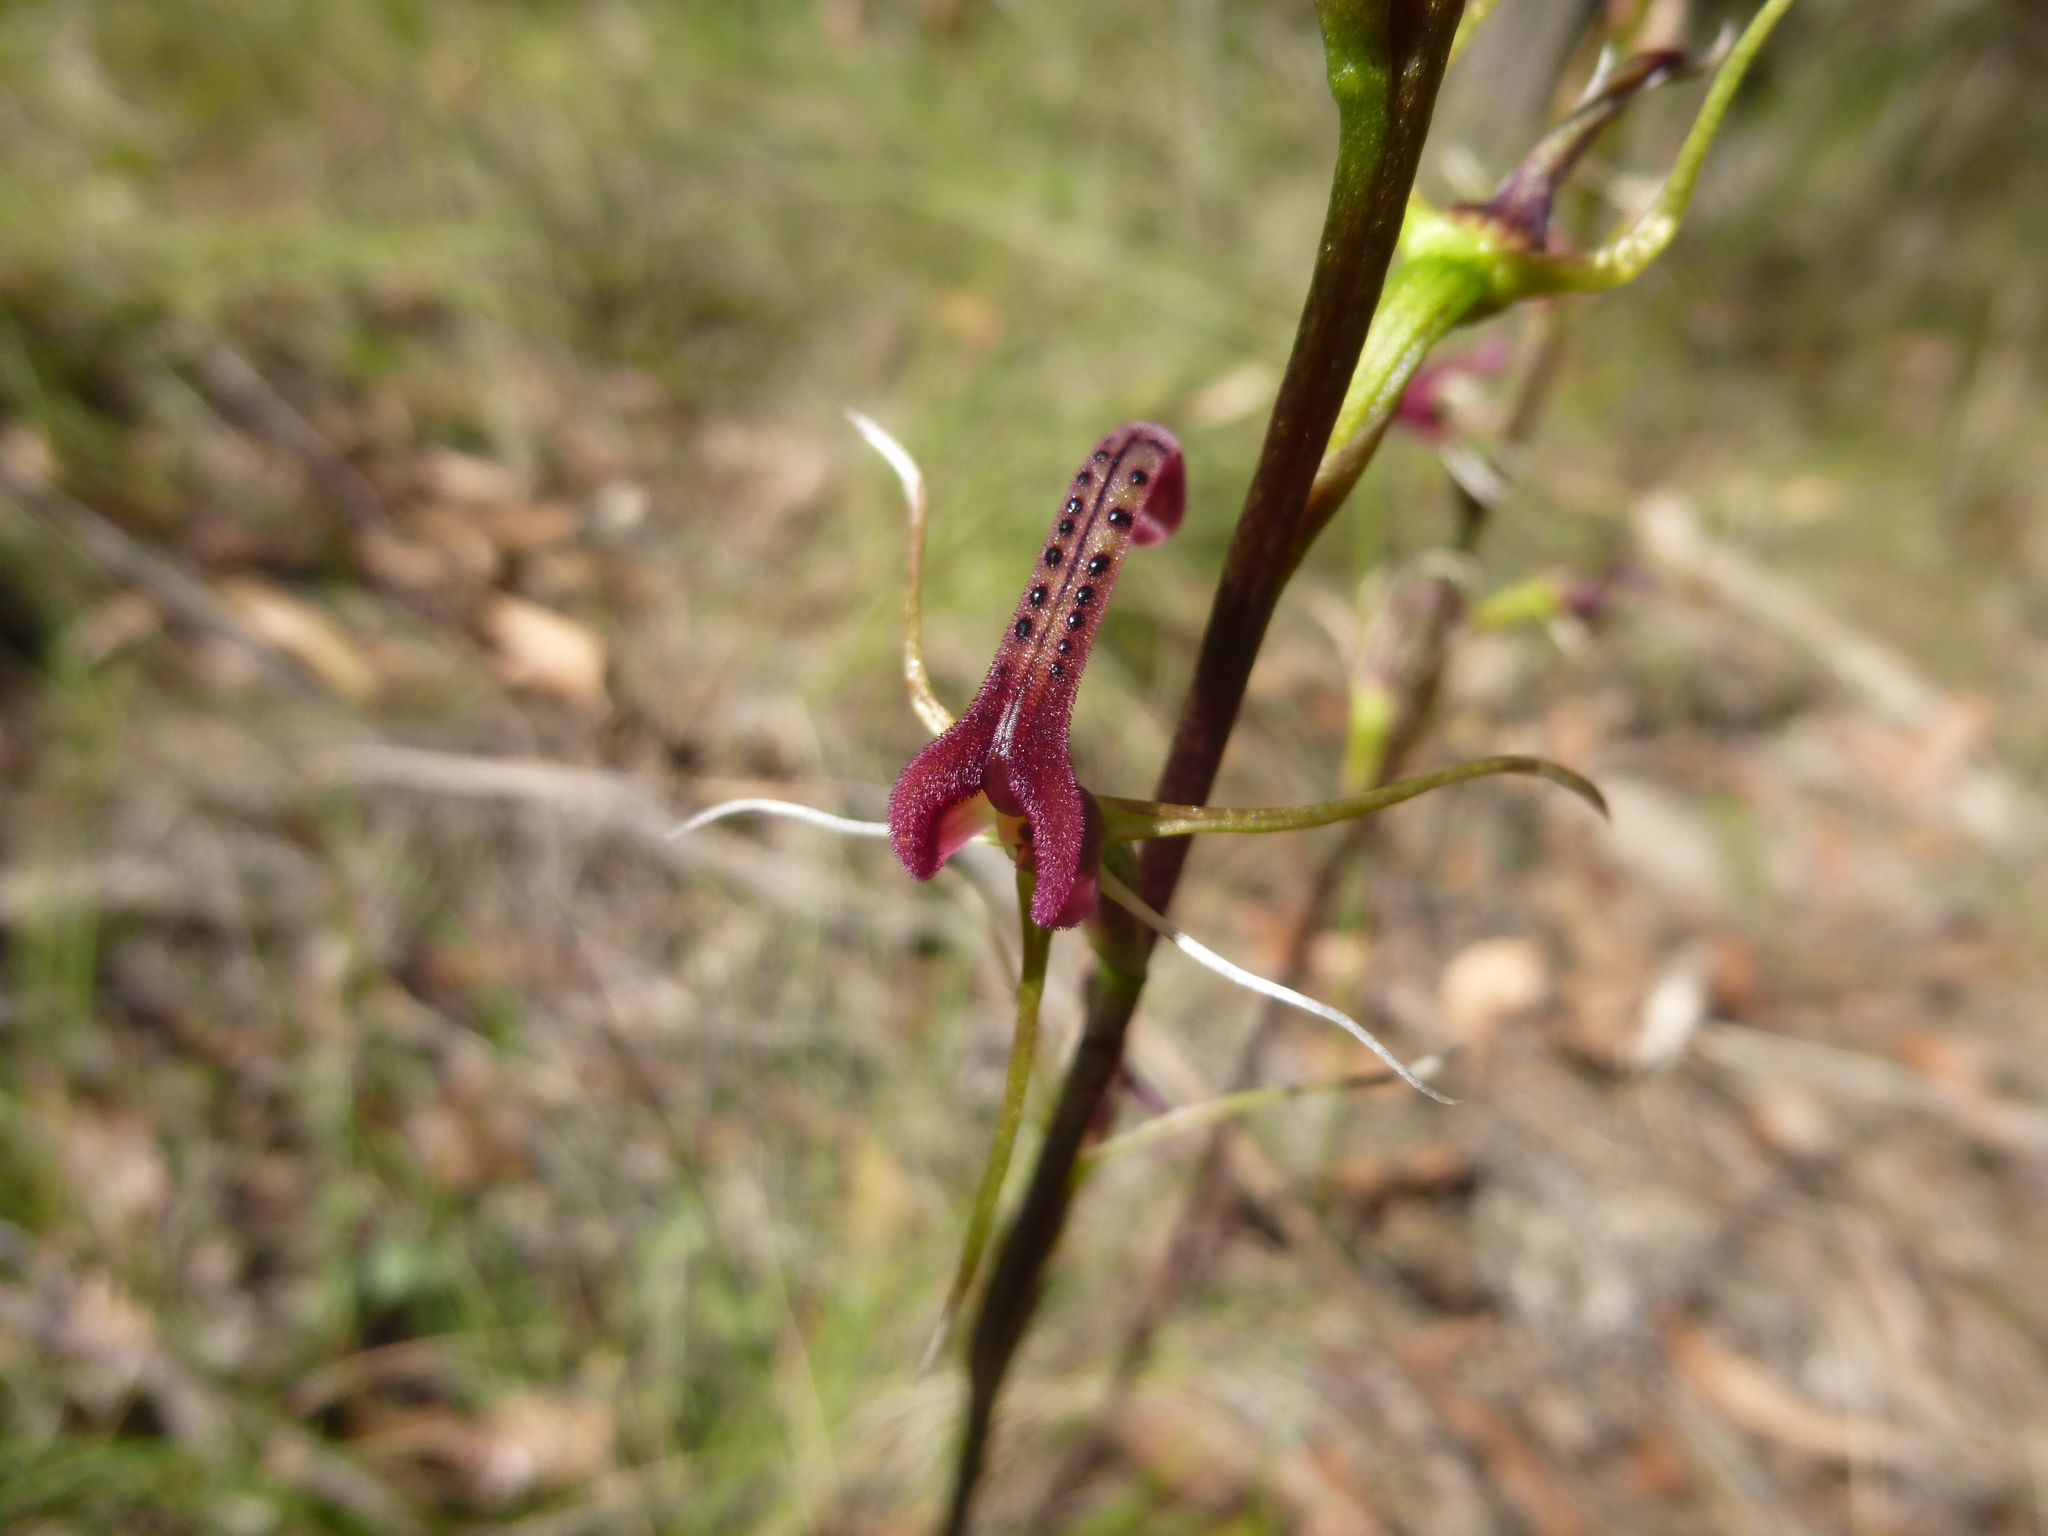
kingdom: Plantae
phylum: Tracheophyta
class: Liliopsida
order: Asparagales
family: Orchidaceae
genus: Cryptostylis
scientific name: Cryptostylis leptochila
